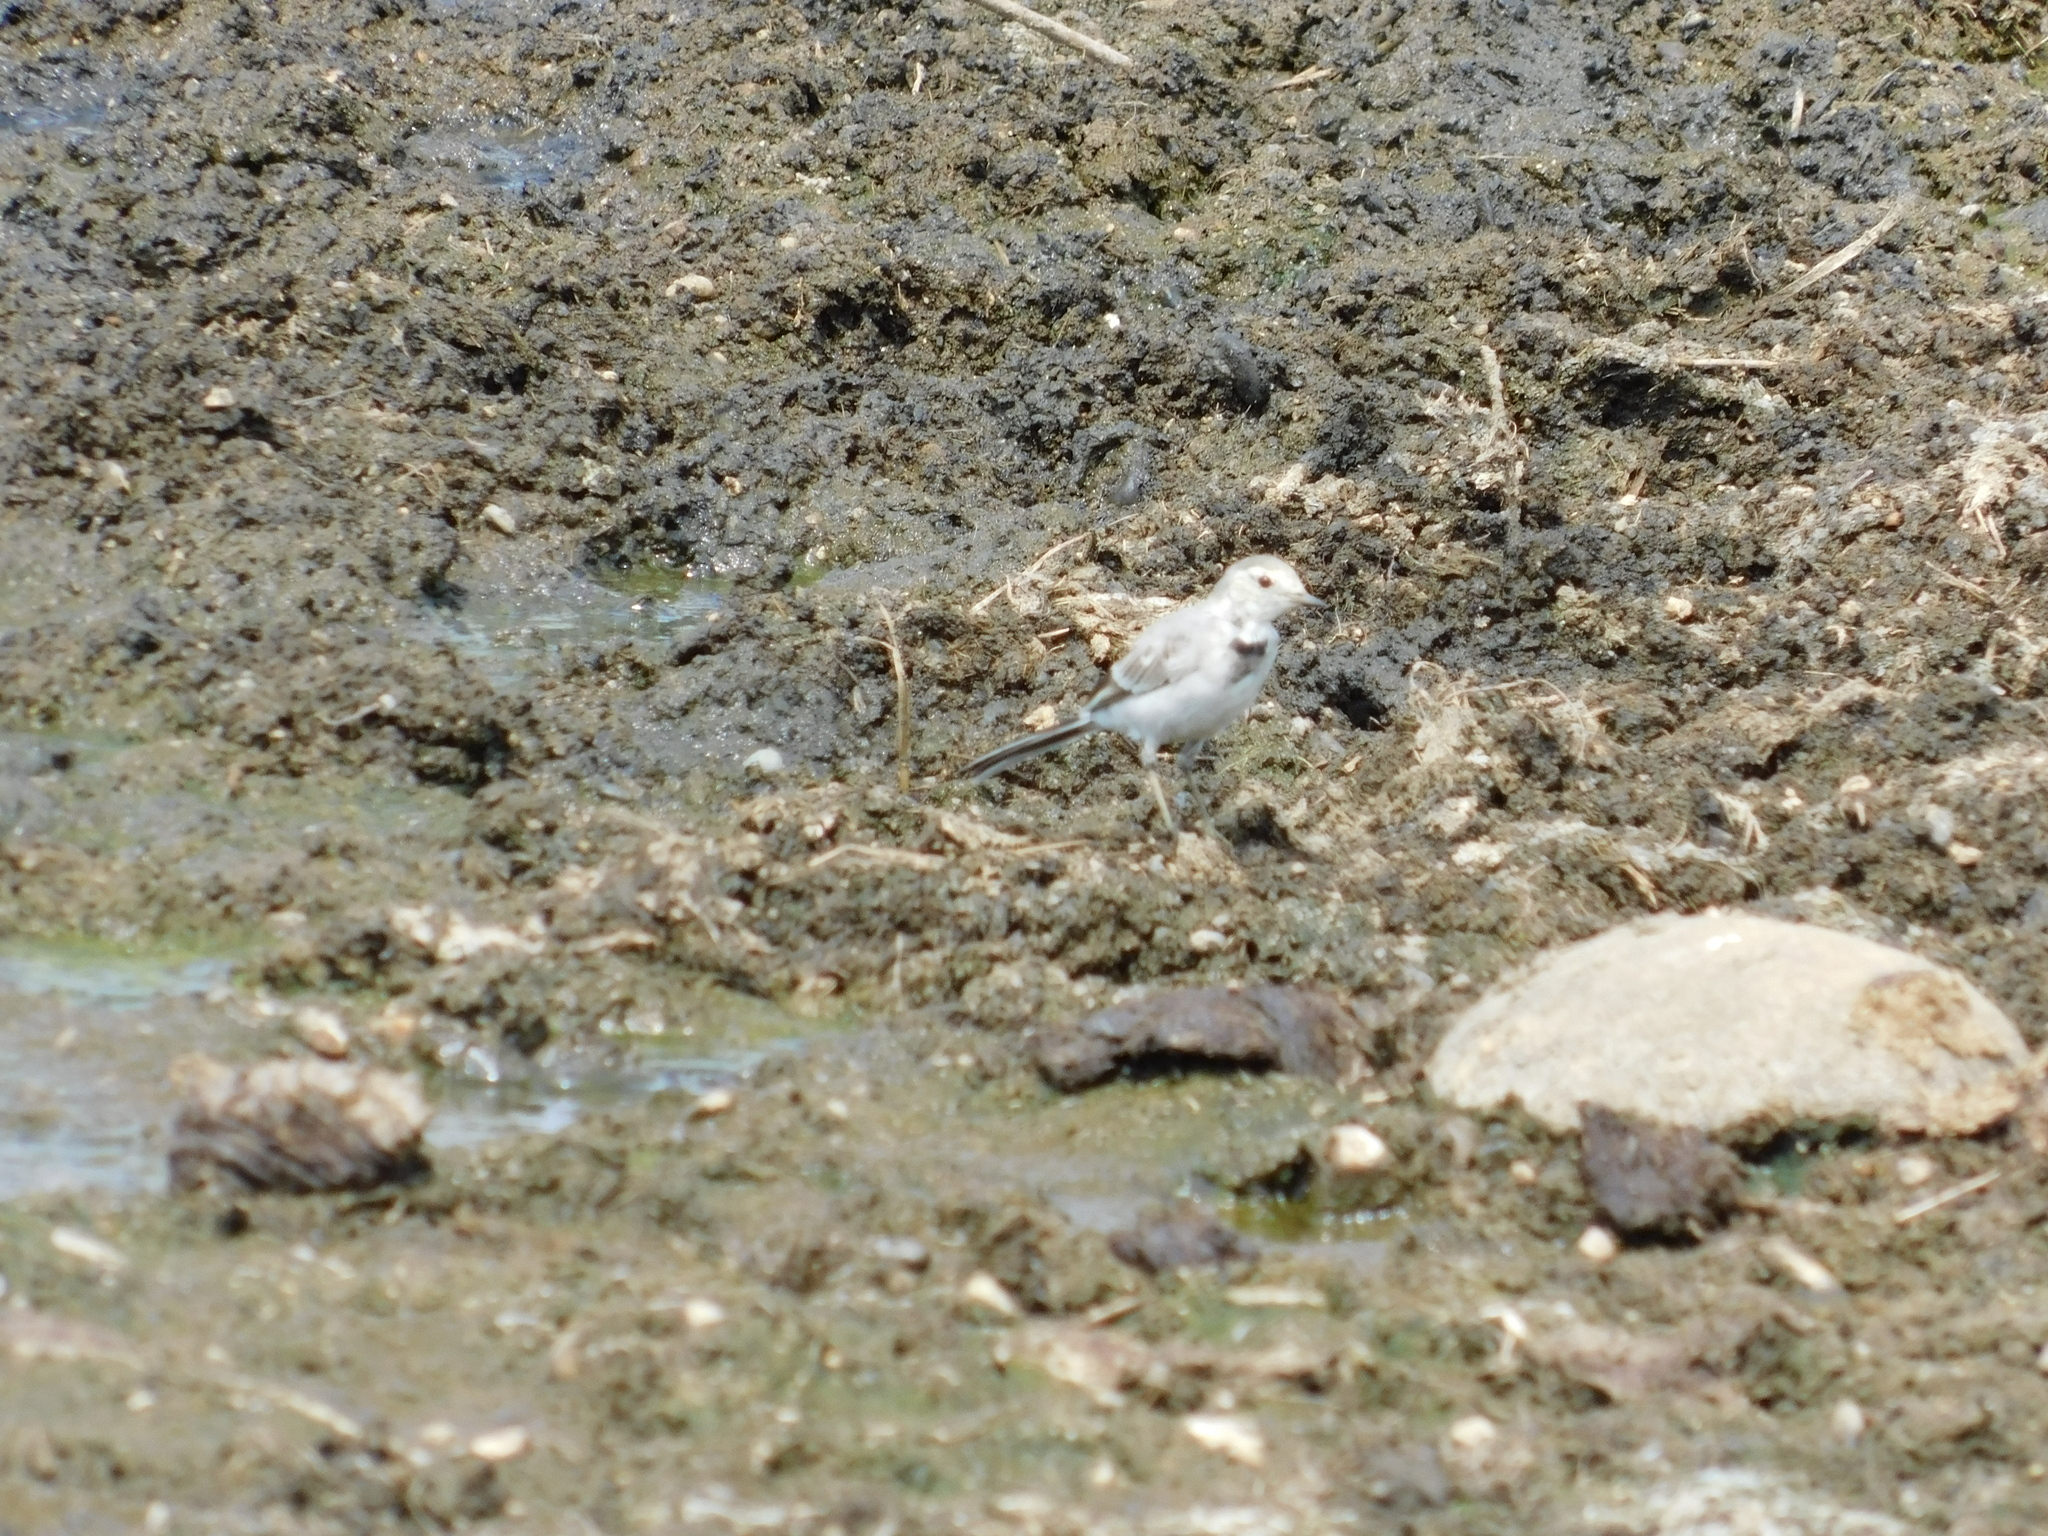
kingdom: Animalia
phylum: Chordata
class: Aves
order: Passeriformes
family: Motacillidae
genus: Motacilla
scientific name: Motacilla alba
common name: White wagtail
